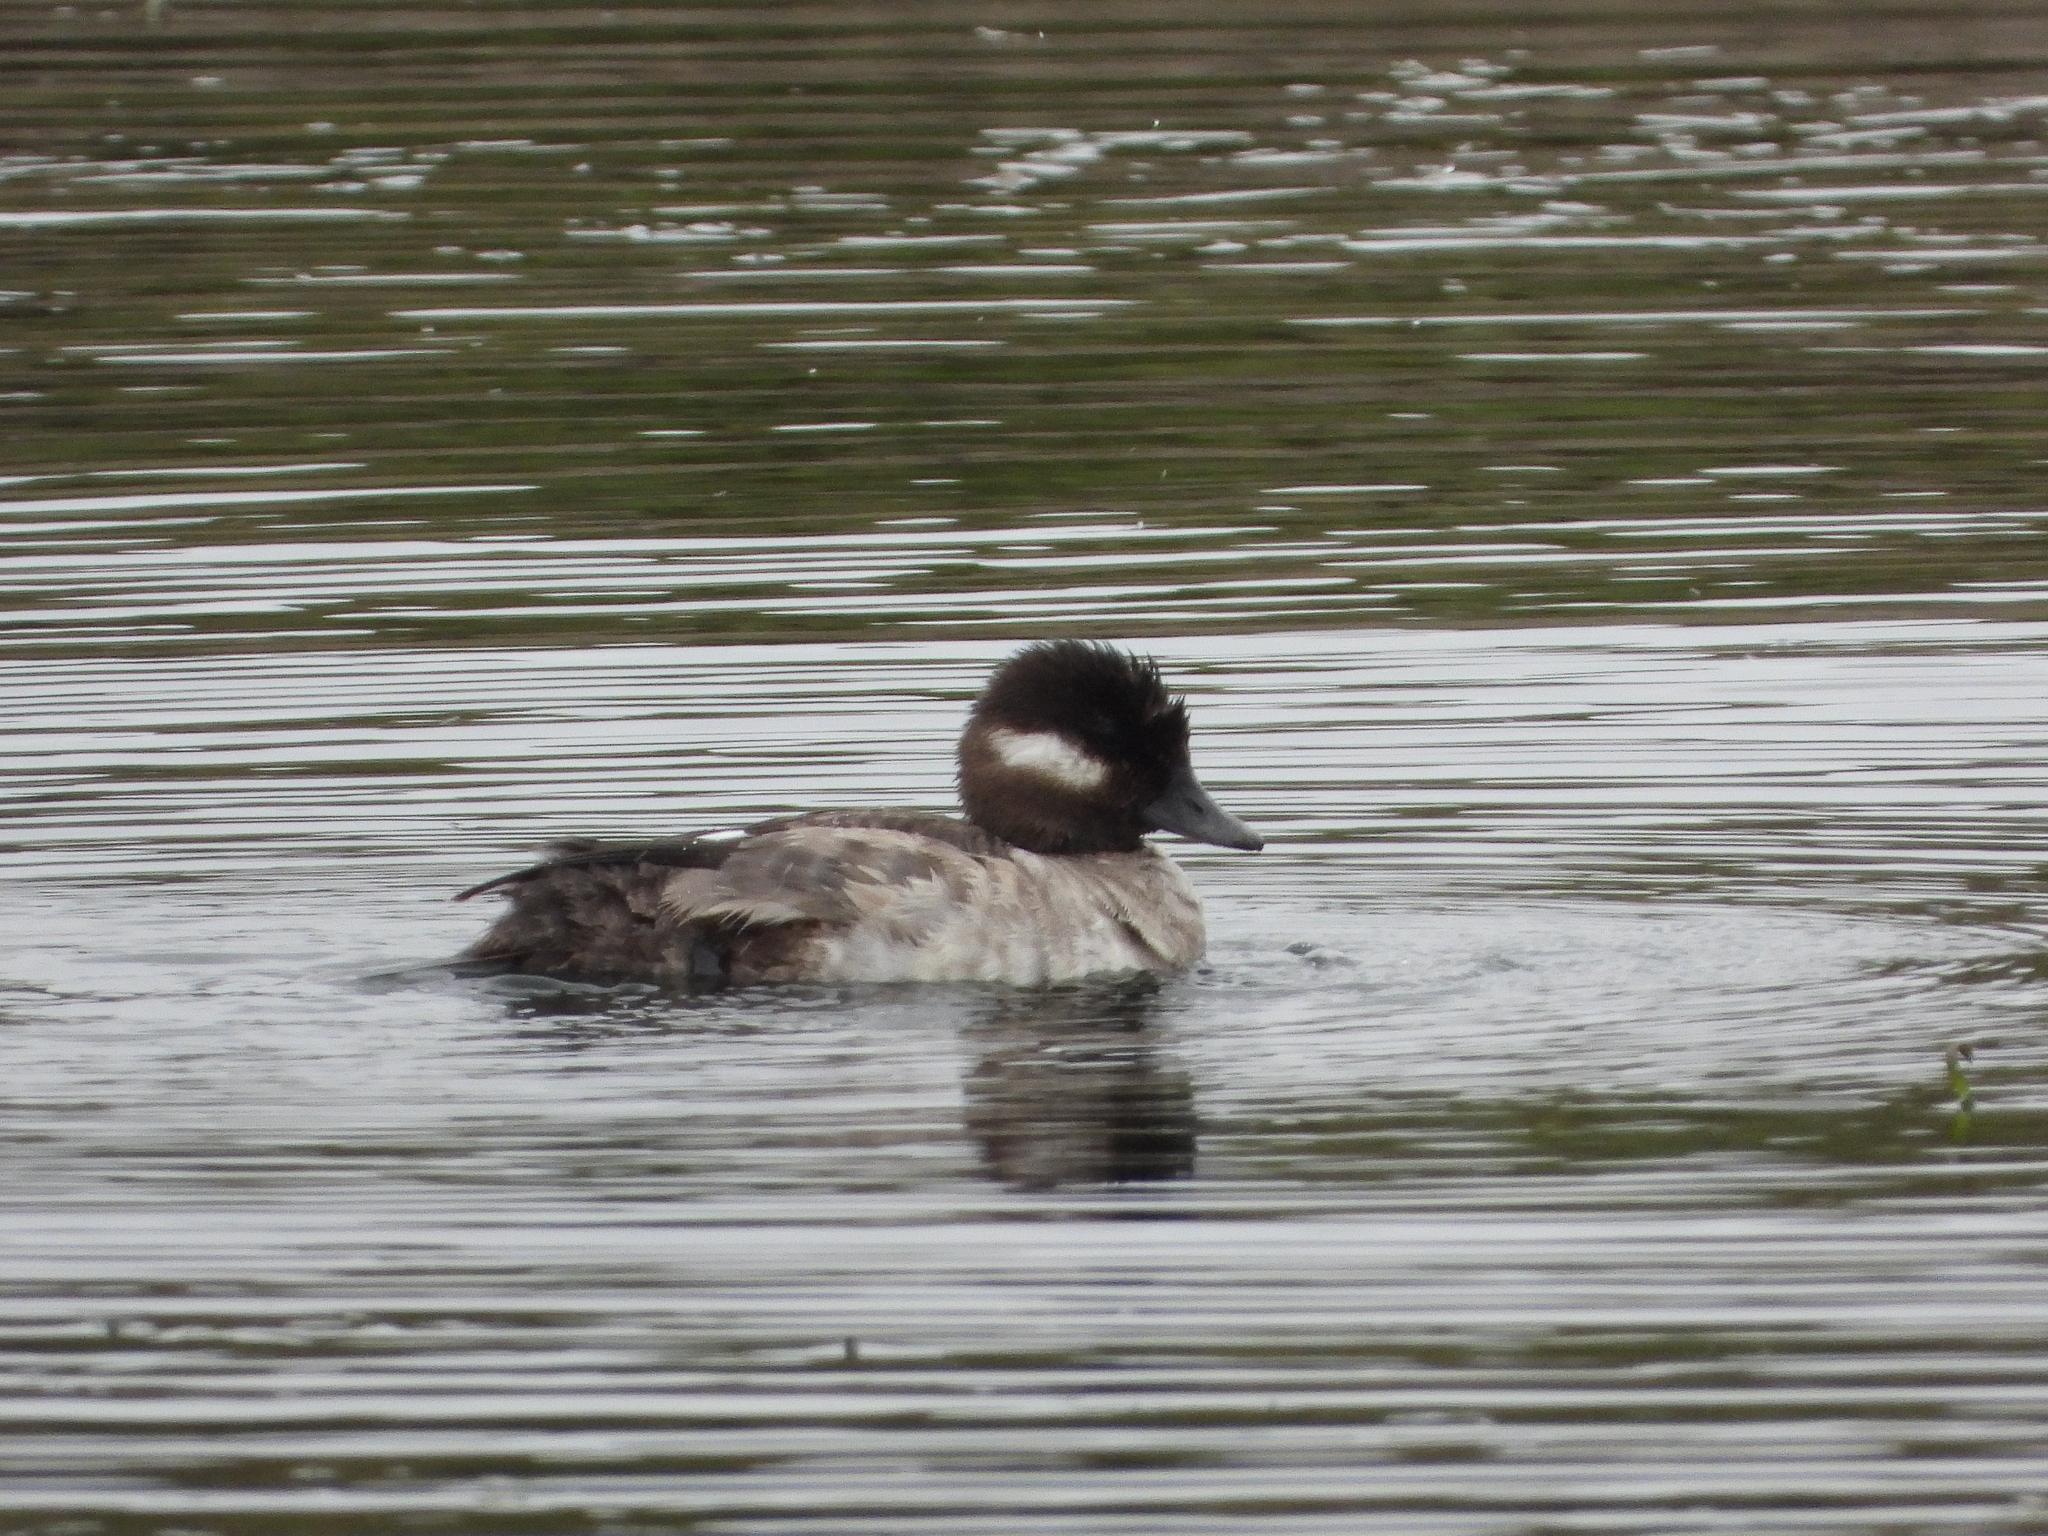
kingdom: Animalia
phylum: Chordata
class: Aves
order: Anseriformes
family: Anatidae
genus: Bucephala
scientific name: Bucephala albeola
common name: Bufflehead
